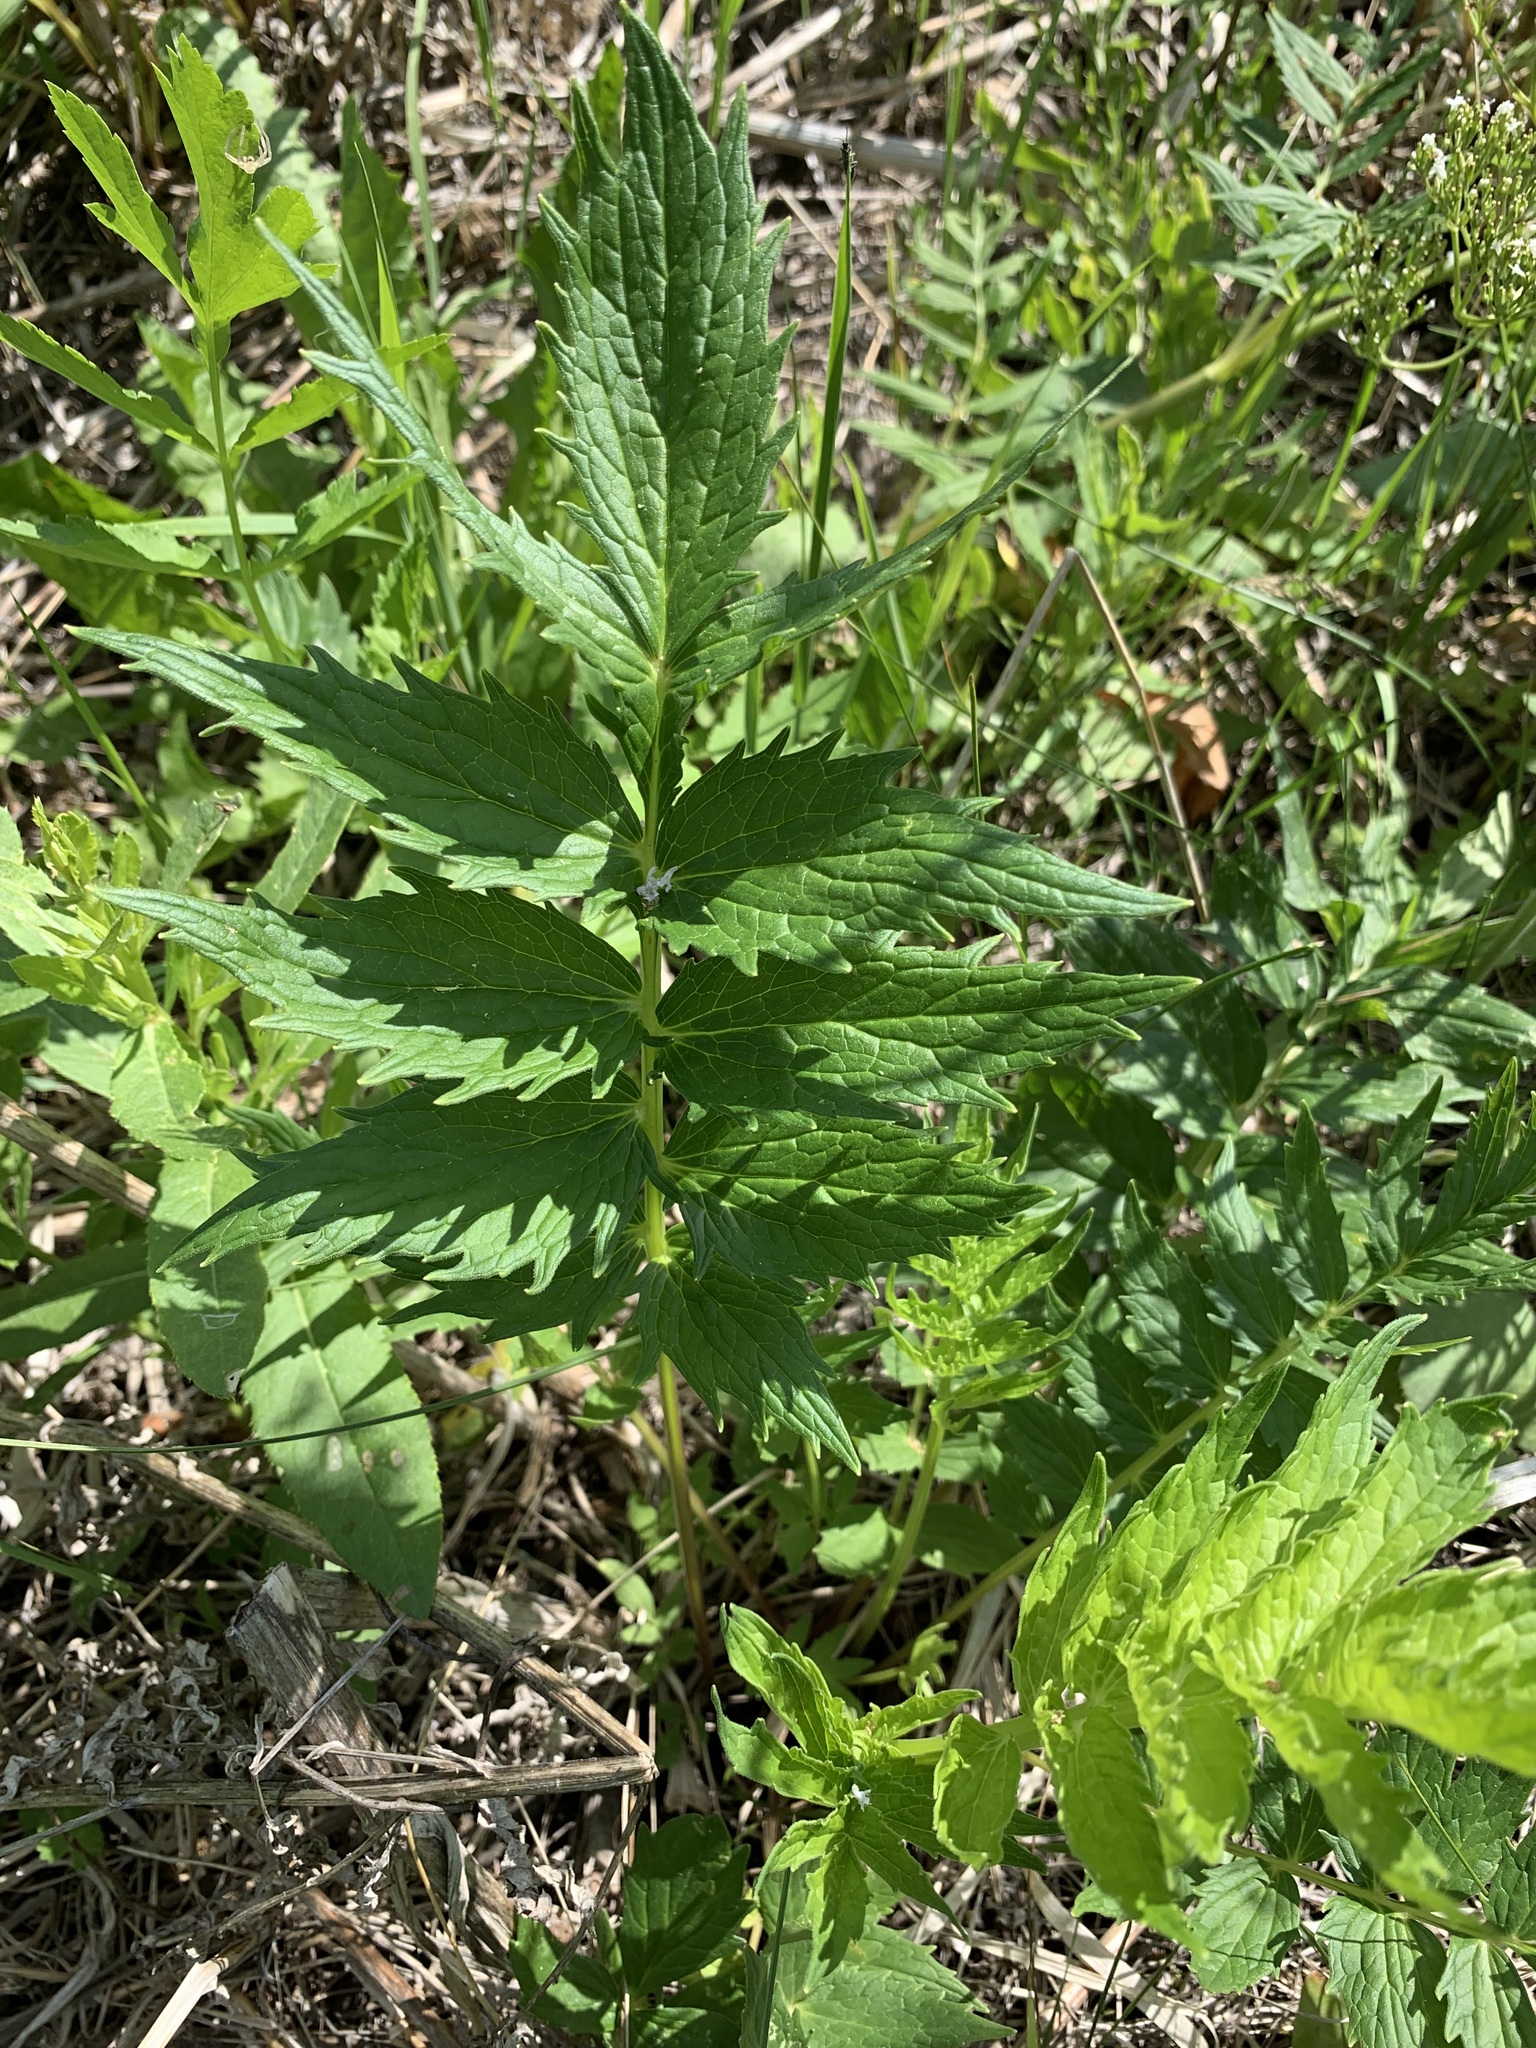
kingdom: Plantae
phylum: Tracheophyta
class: Magnoliopsida
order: Dipsacales
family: Caprifoliaceae
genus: Valeriana
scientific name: Valeriana wolgensis
